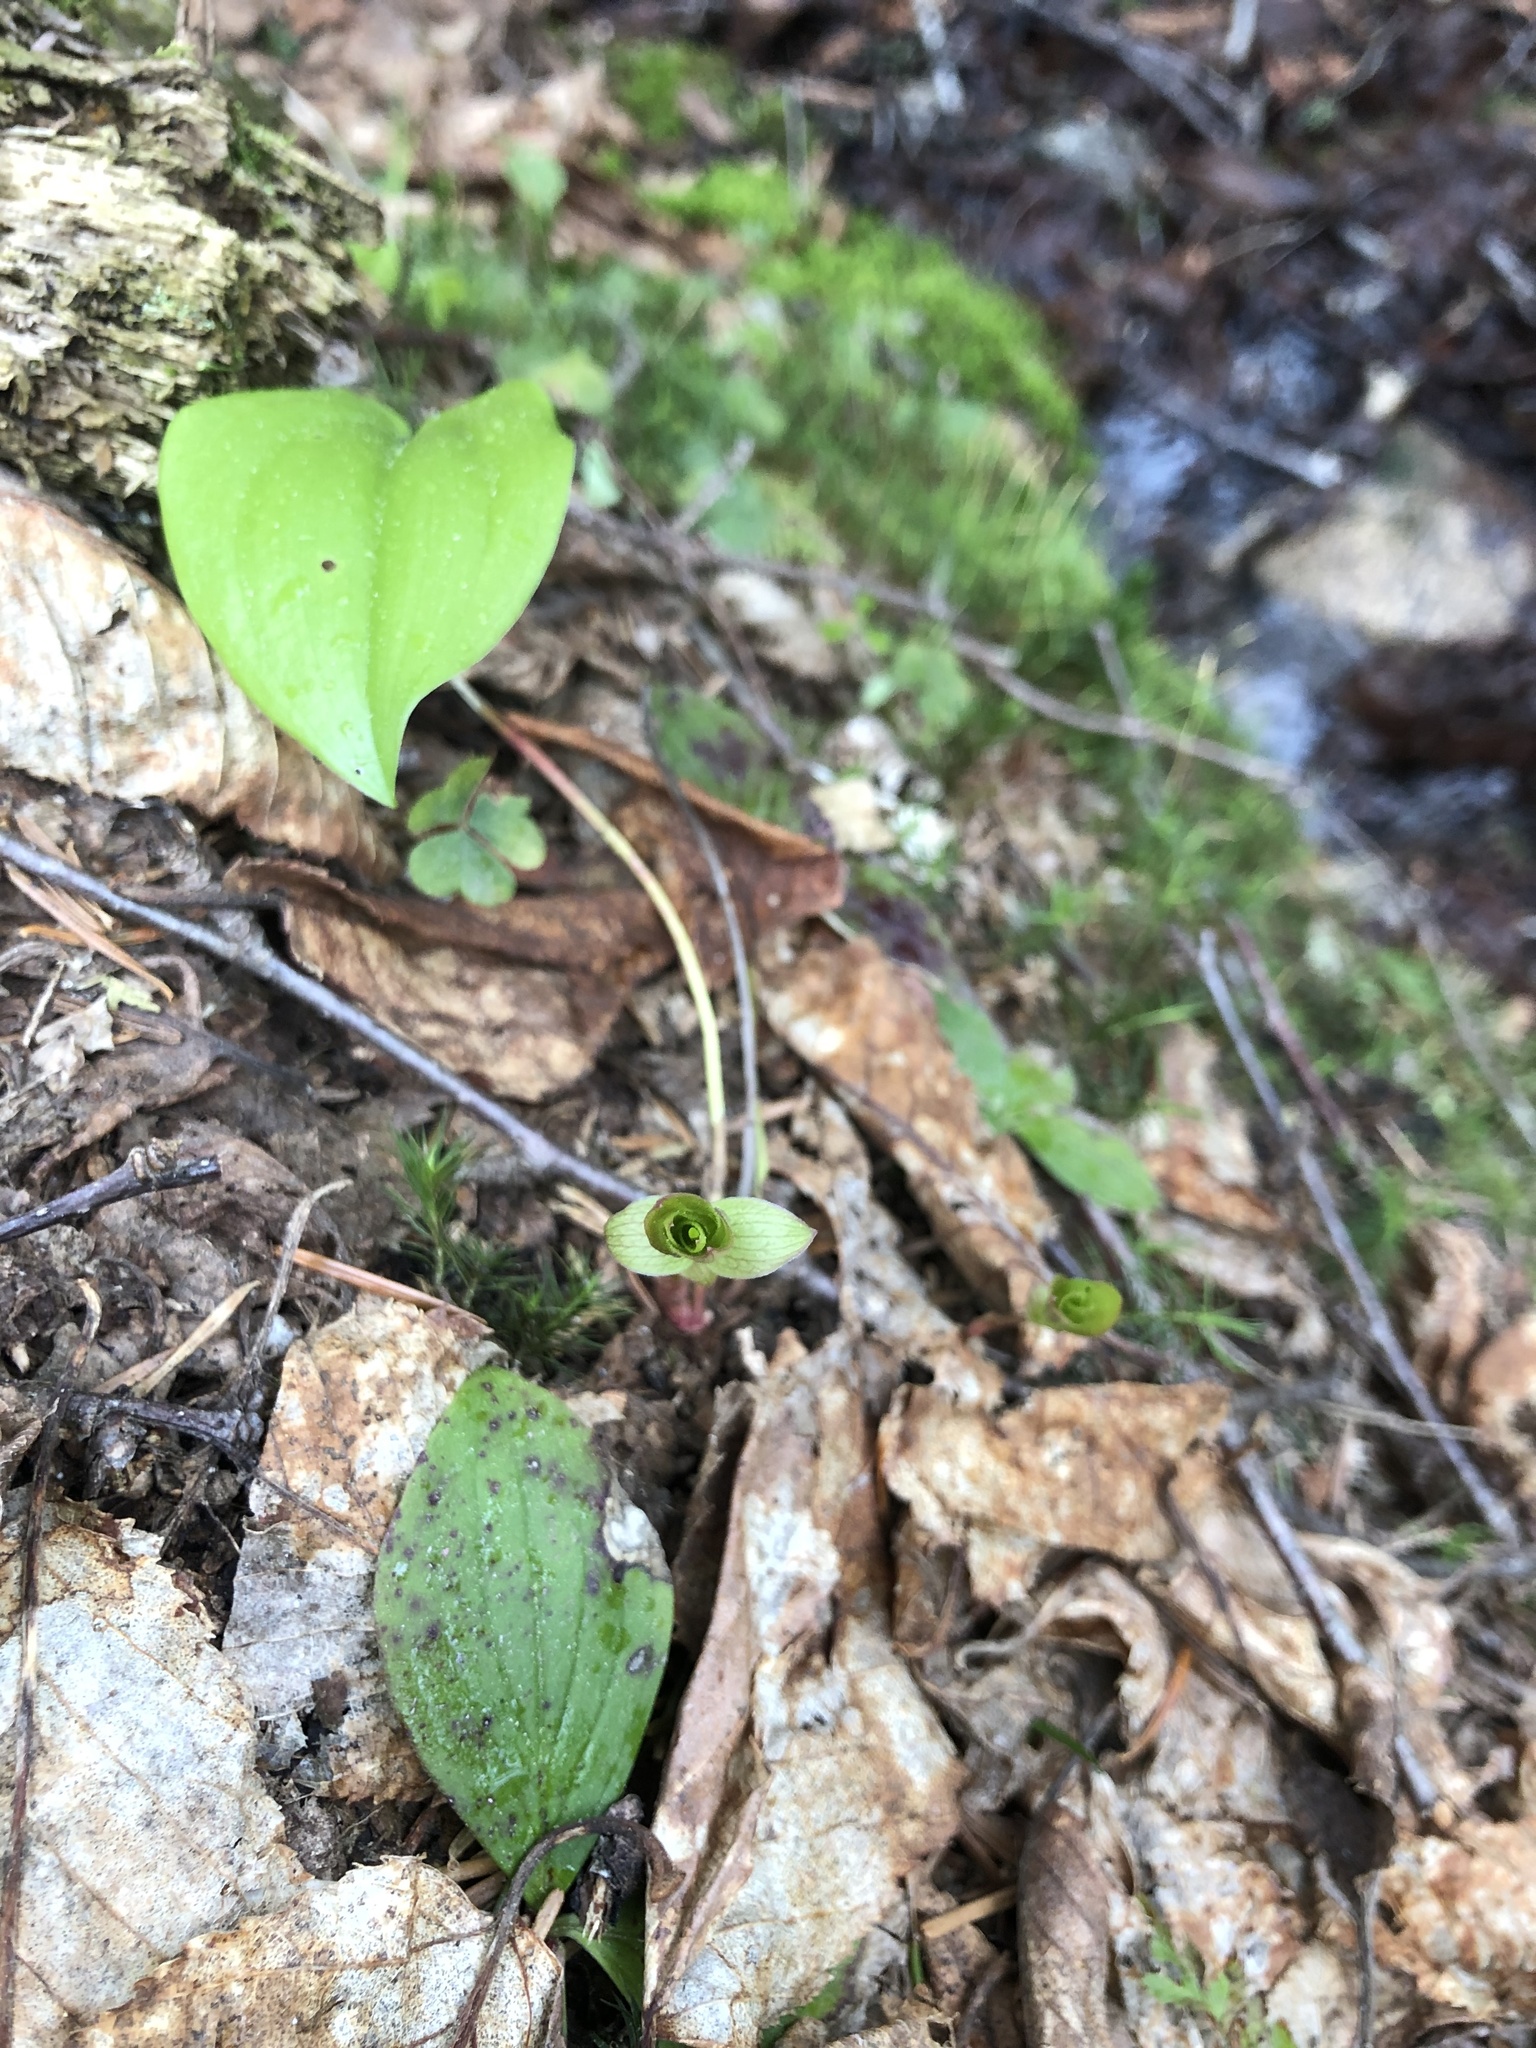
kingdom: Plantae
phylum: Tracheophyta
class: Magnoliopsida
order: Cornales
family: Cornaceae
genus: Cornus
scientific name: Cornus canadensis
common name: Creeping dogwood
